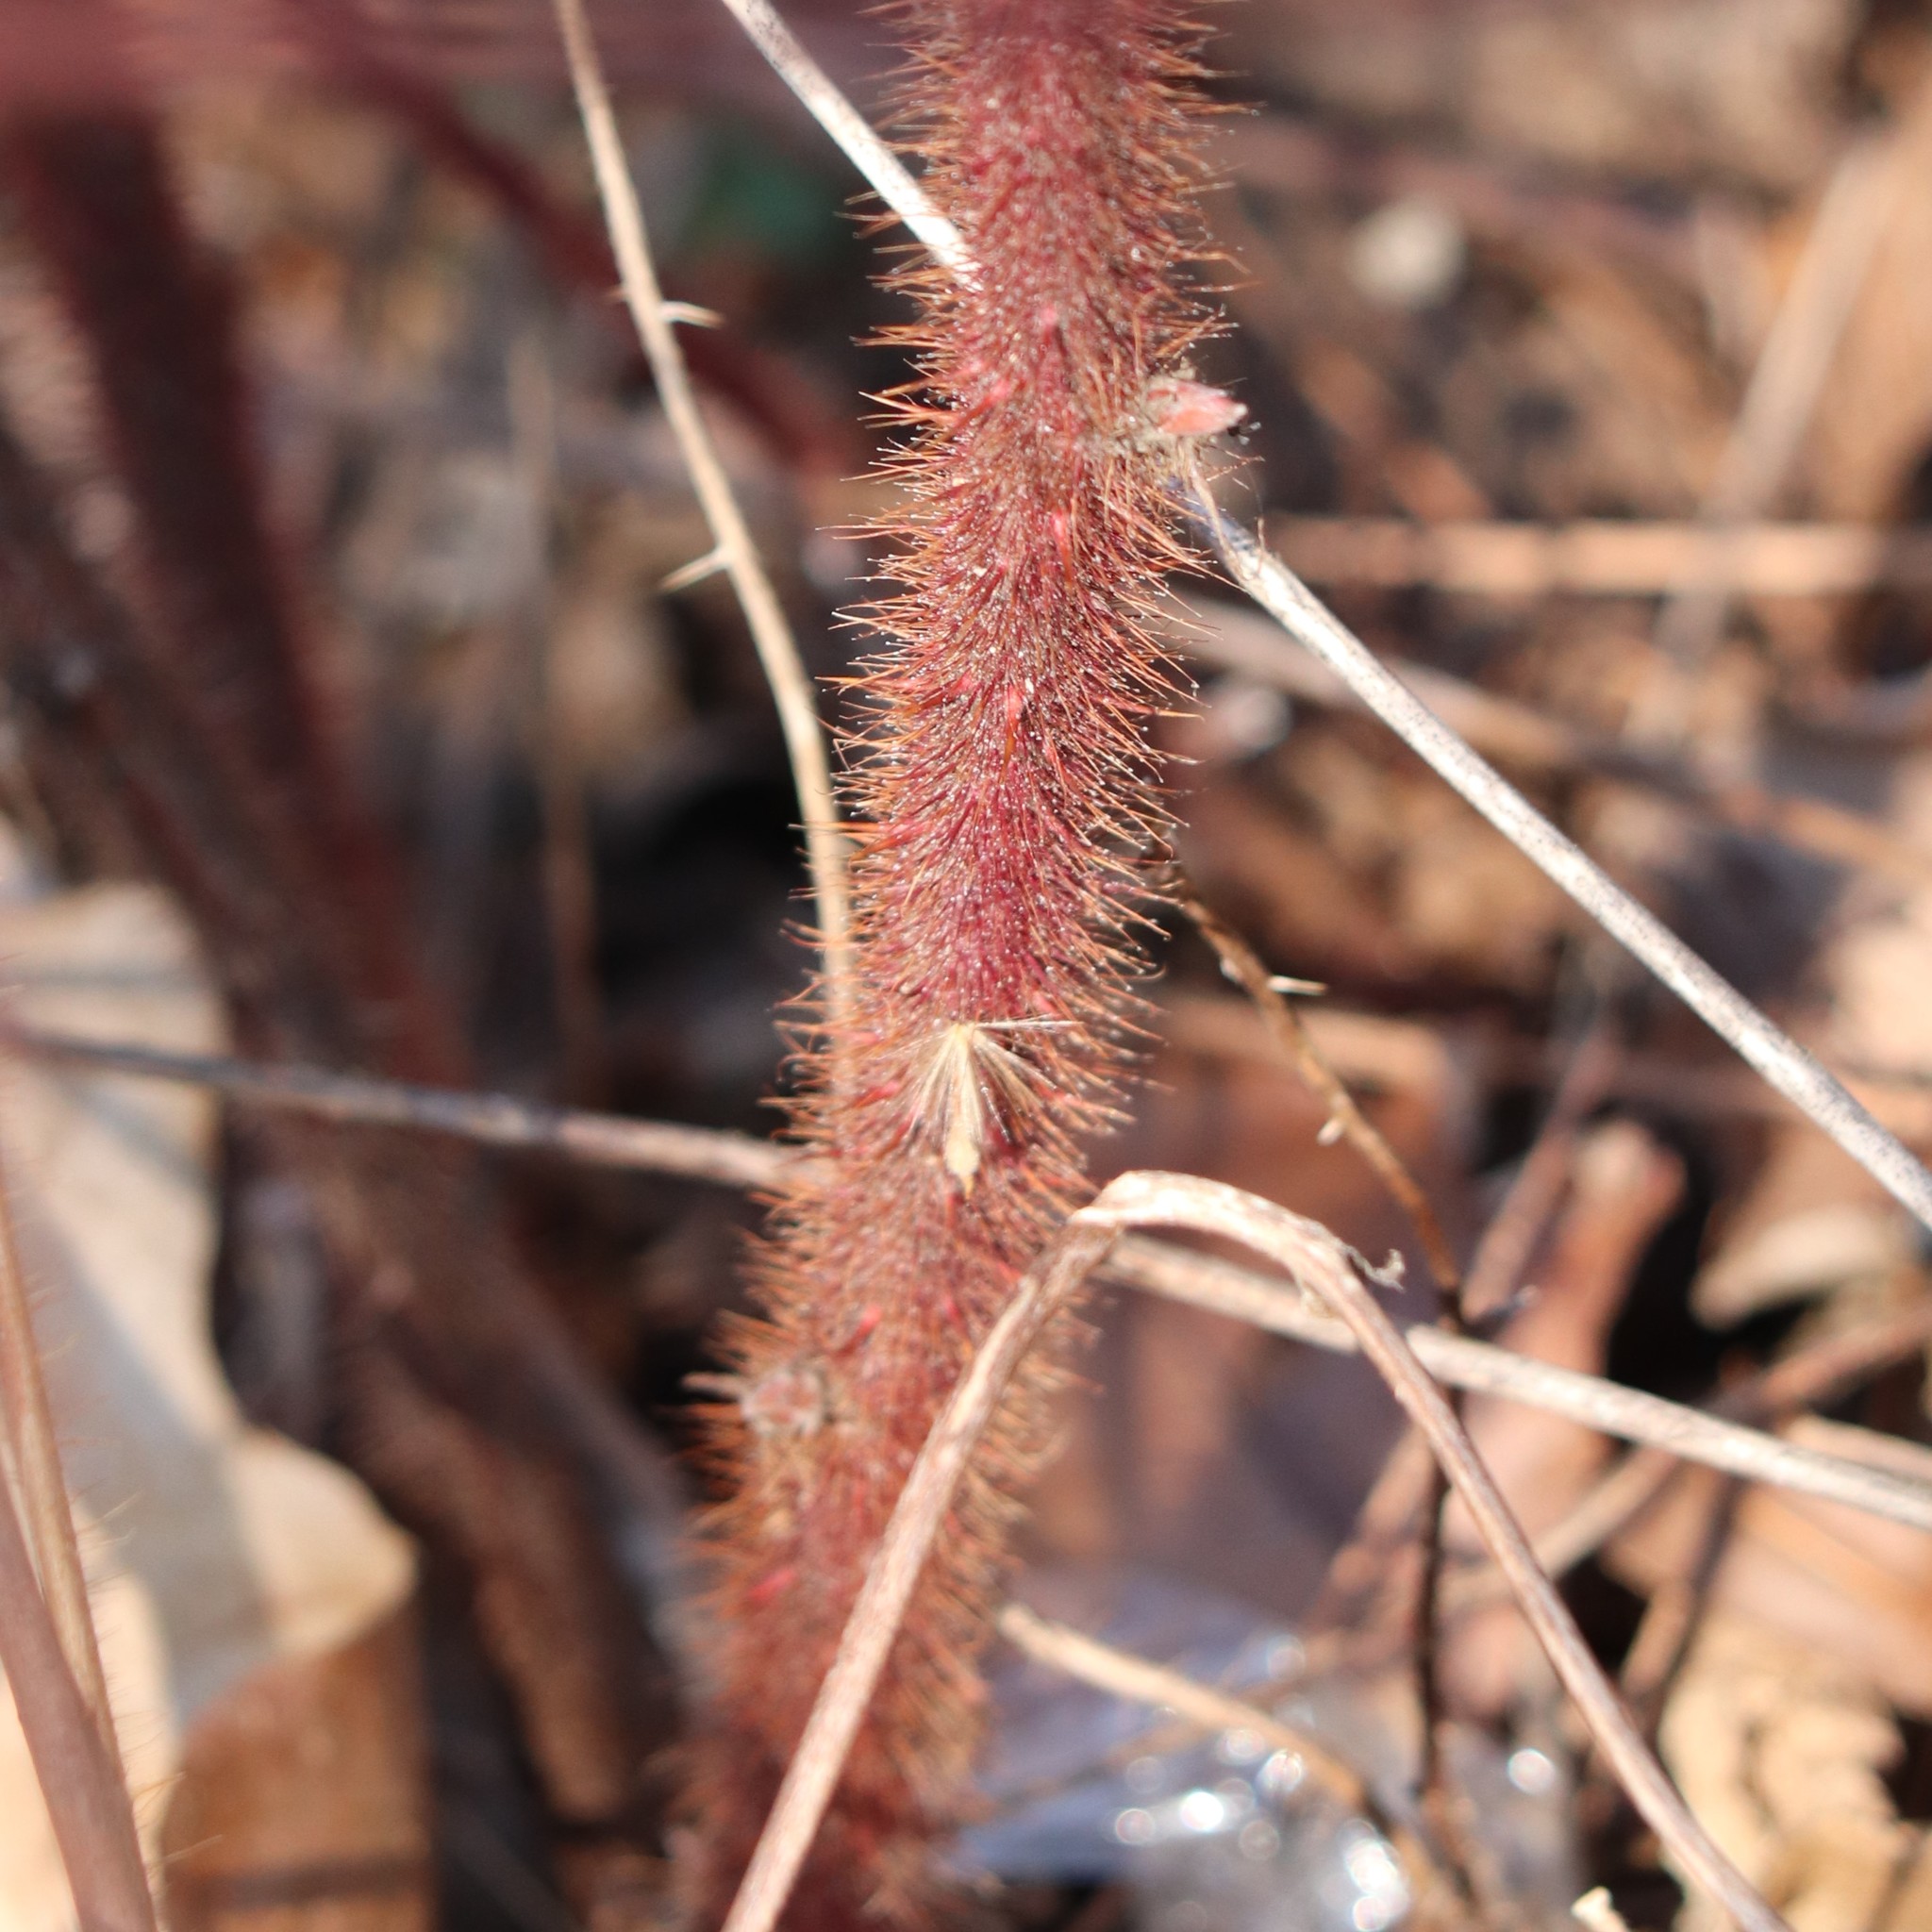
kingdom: Plantae
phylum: Tracheophyta
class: Magnoliopsida
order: Rosales
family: Rosaceae
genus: Rubus
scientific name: Rubus phoenicolasius
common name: Japanese wineberry
